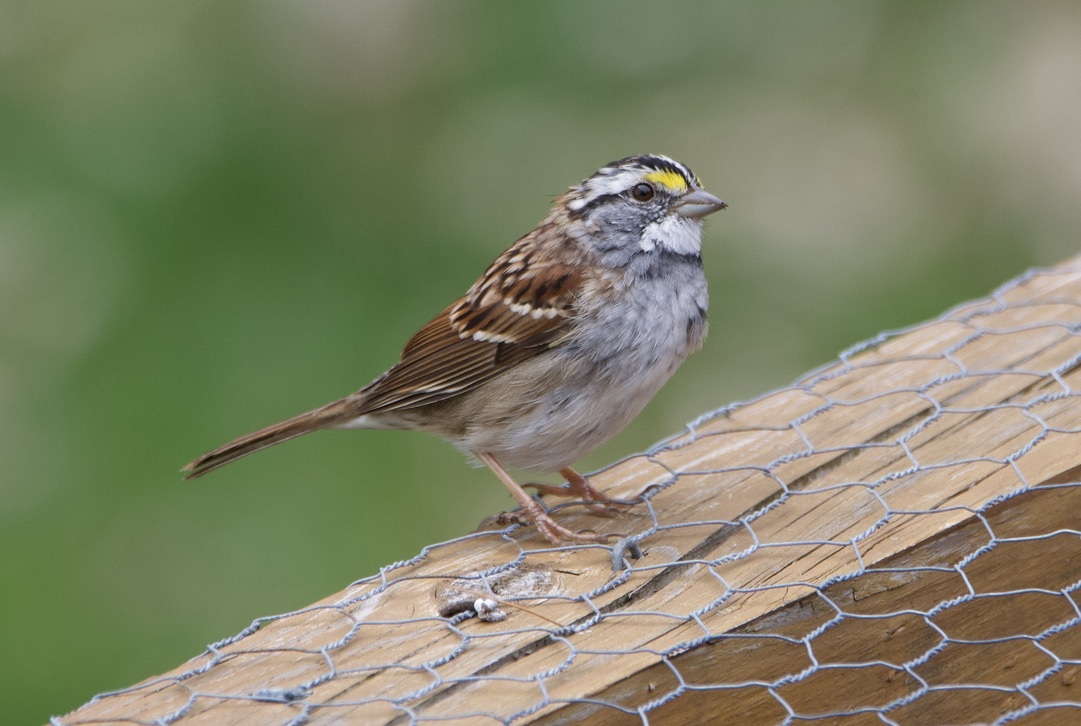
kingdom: Animalia
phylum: Chordata
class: Aves
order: Passeriformes
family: Passerellidae
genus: Zonotrichia
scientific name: Zonotrichia albicollis
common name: White-throated sparrow
